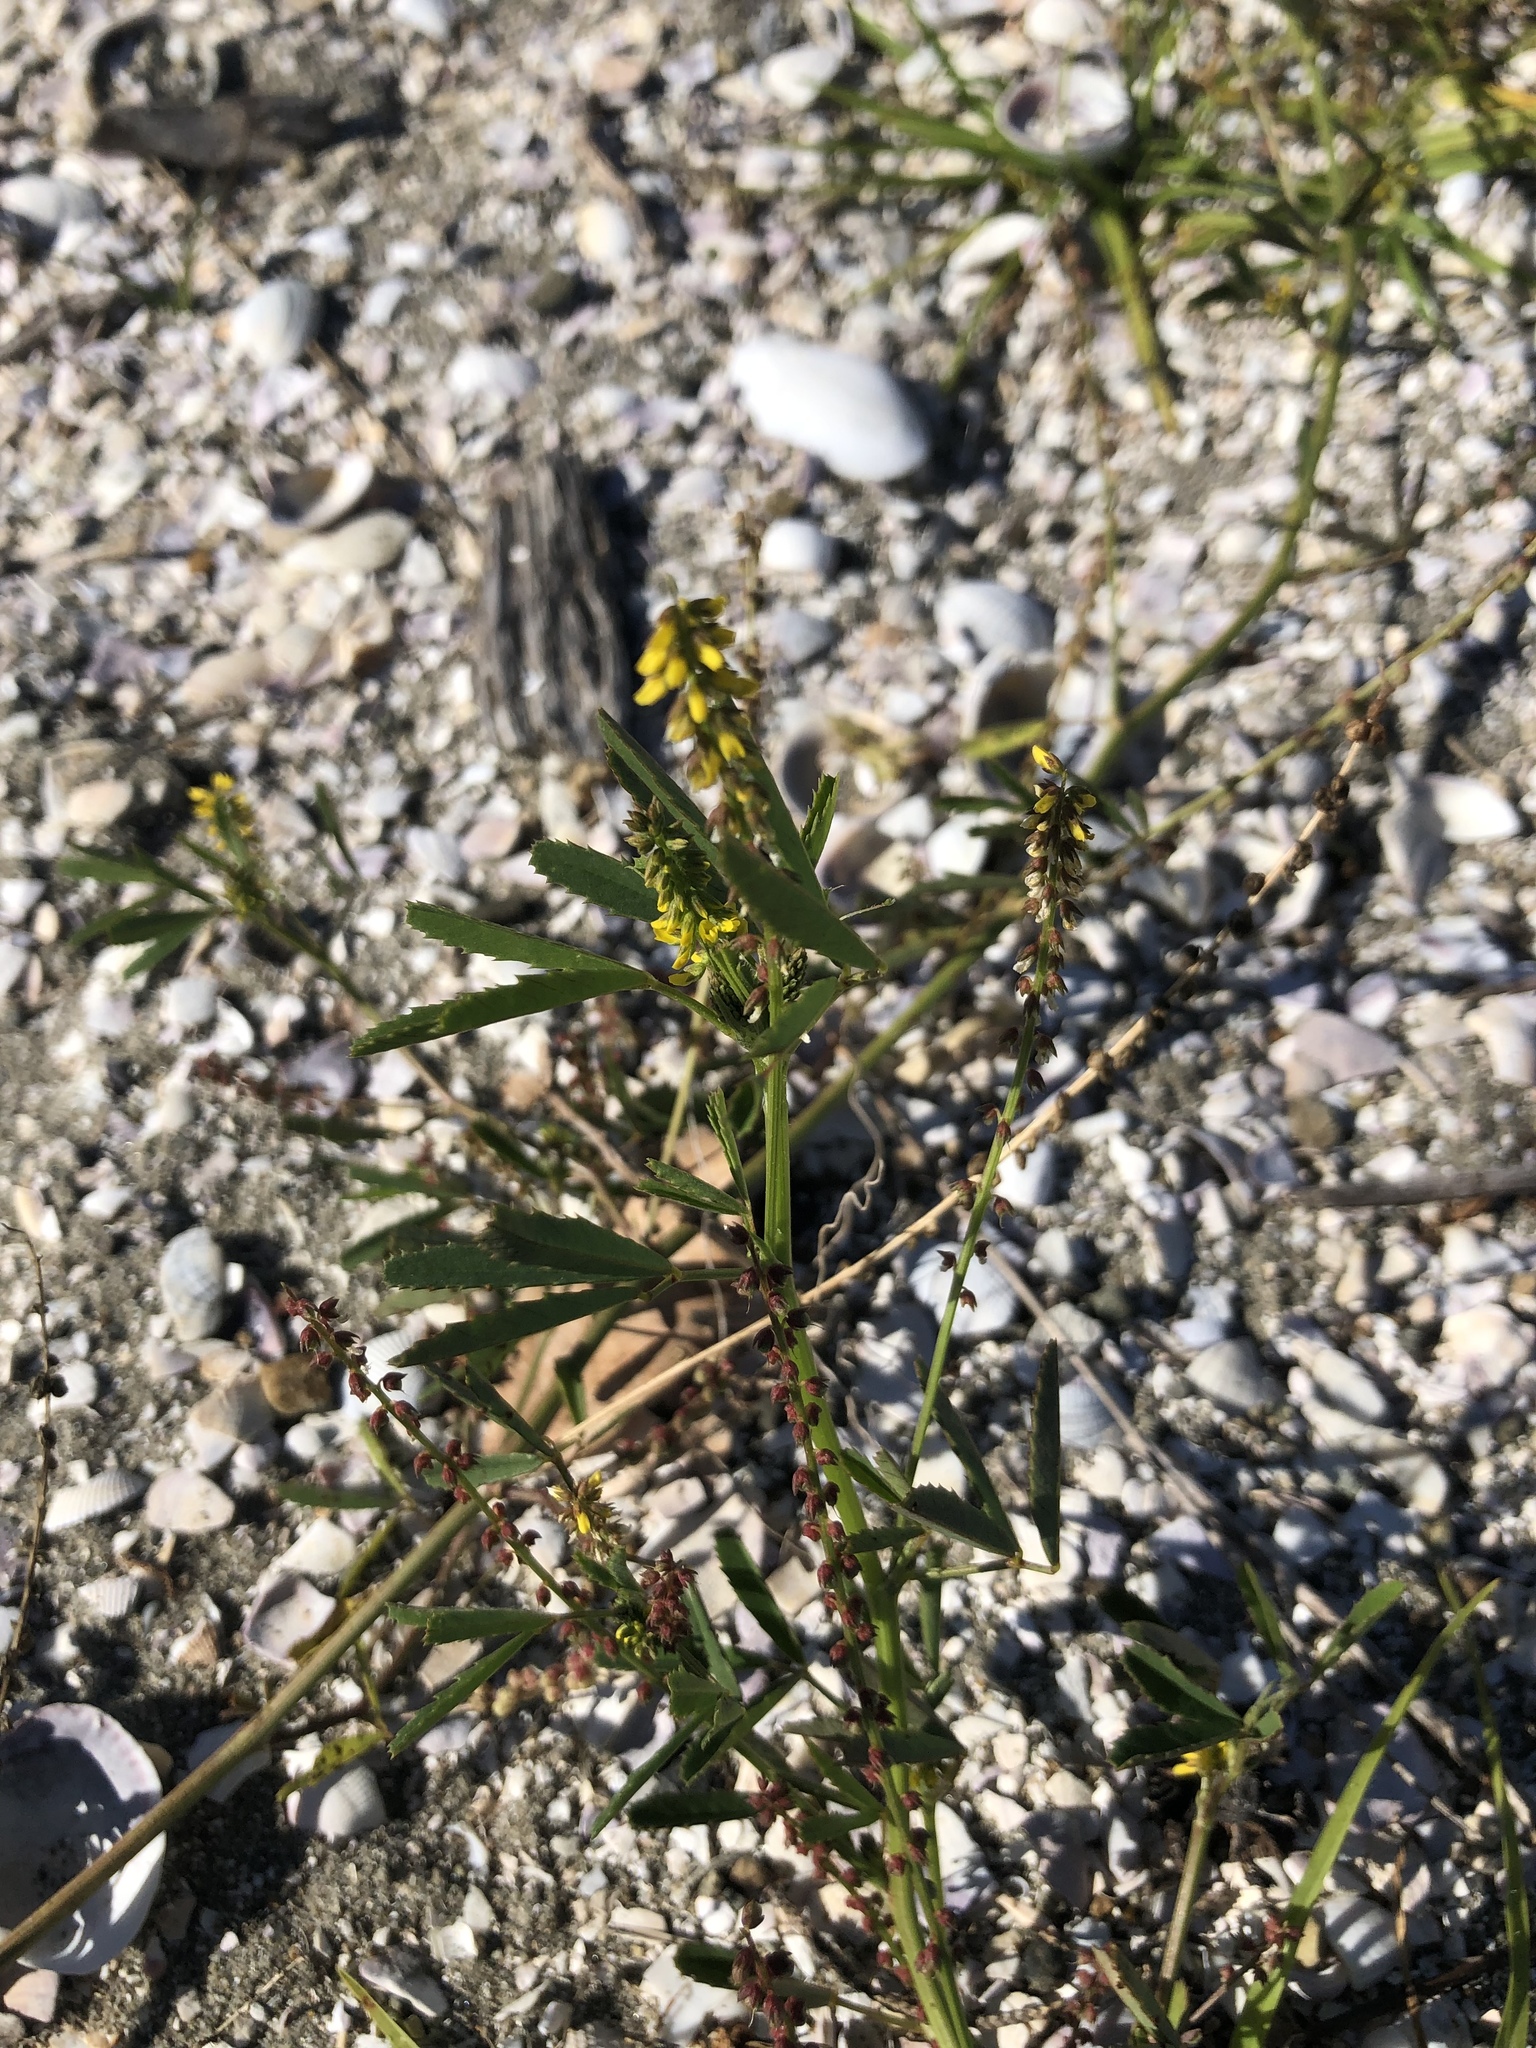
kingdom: Plantae
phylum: Tracheophyta
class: Magnoliopsida
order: Fabales
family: Fabaceae
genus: Melilotus
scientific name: Melilotus indicus
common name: Small melilot
